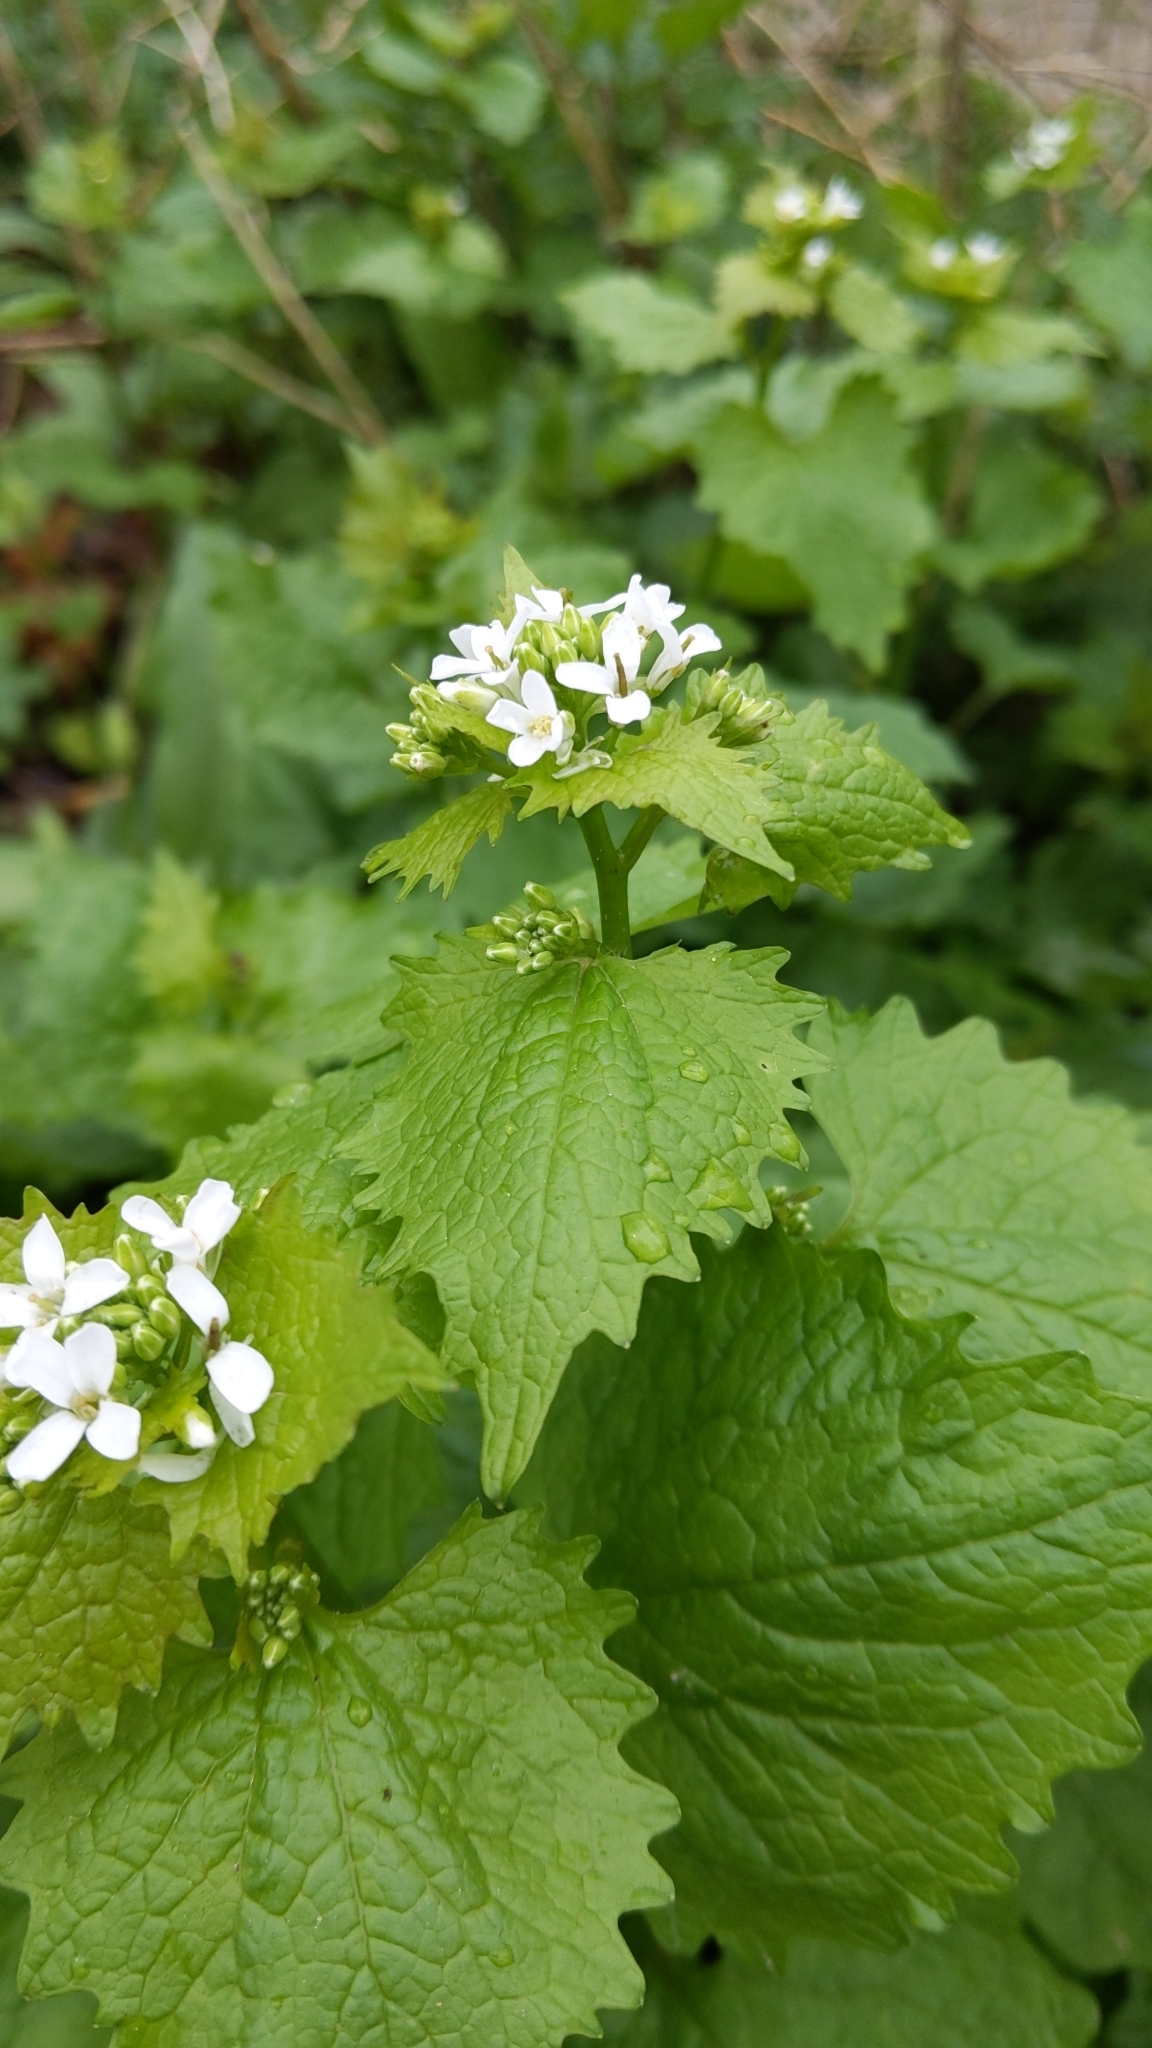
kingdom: Plantae
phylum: Tracheophyta
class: Magnoliopsida
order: Brassicales
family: Brassicaceae
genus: Alliaria
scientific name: Alliaria petiolata
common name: Garlic mustard
